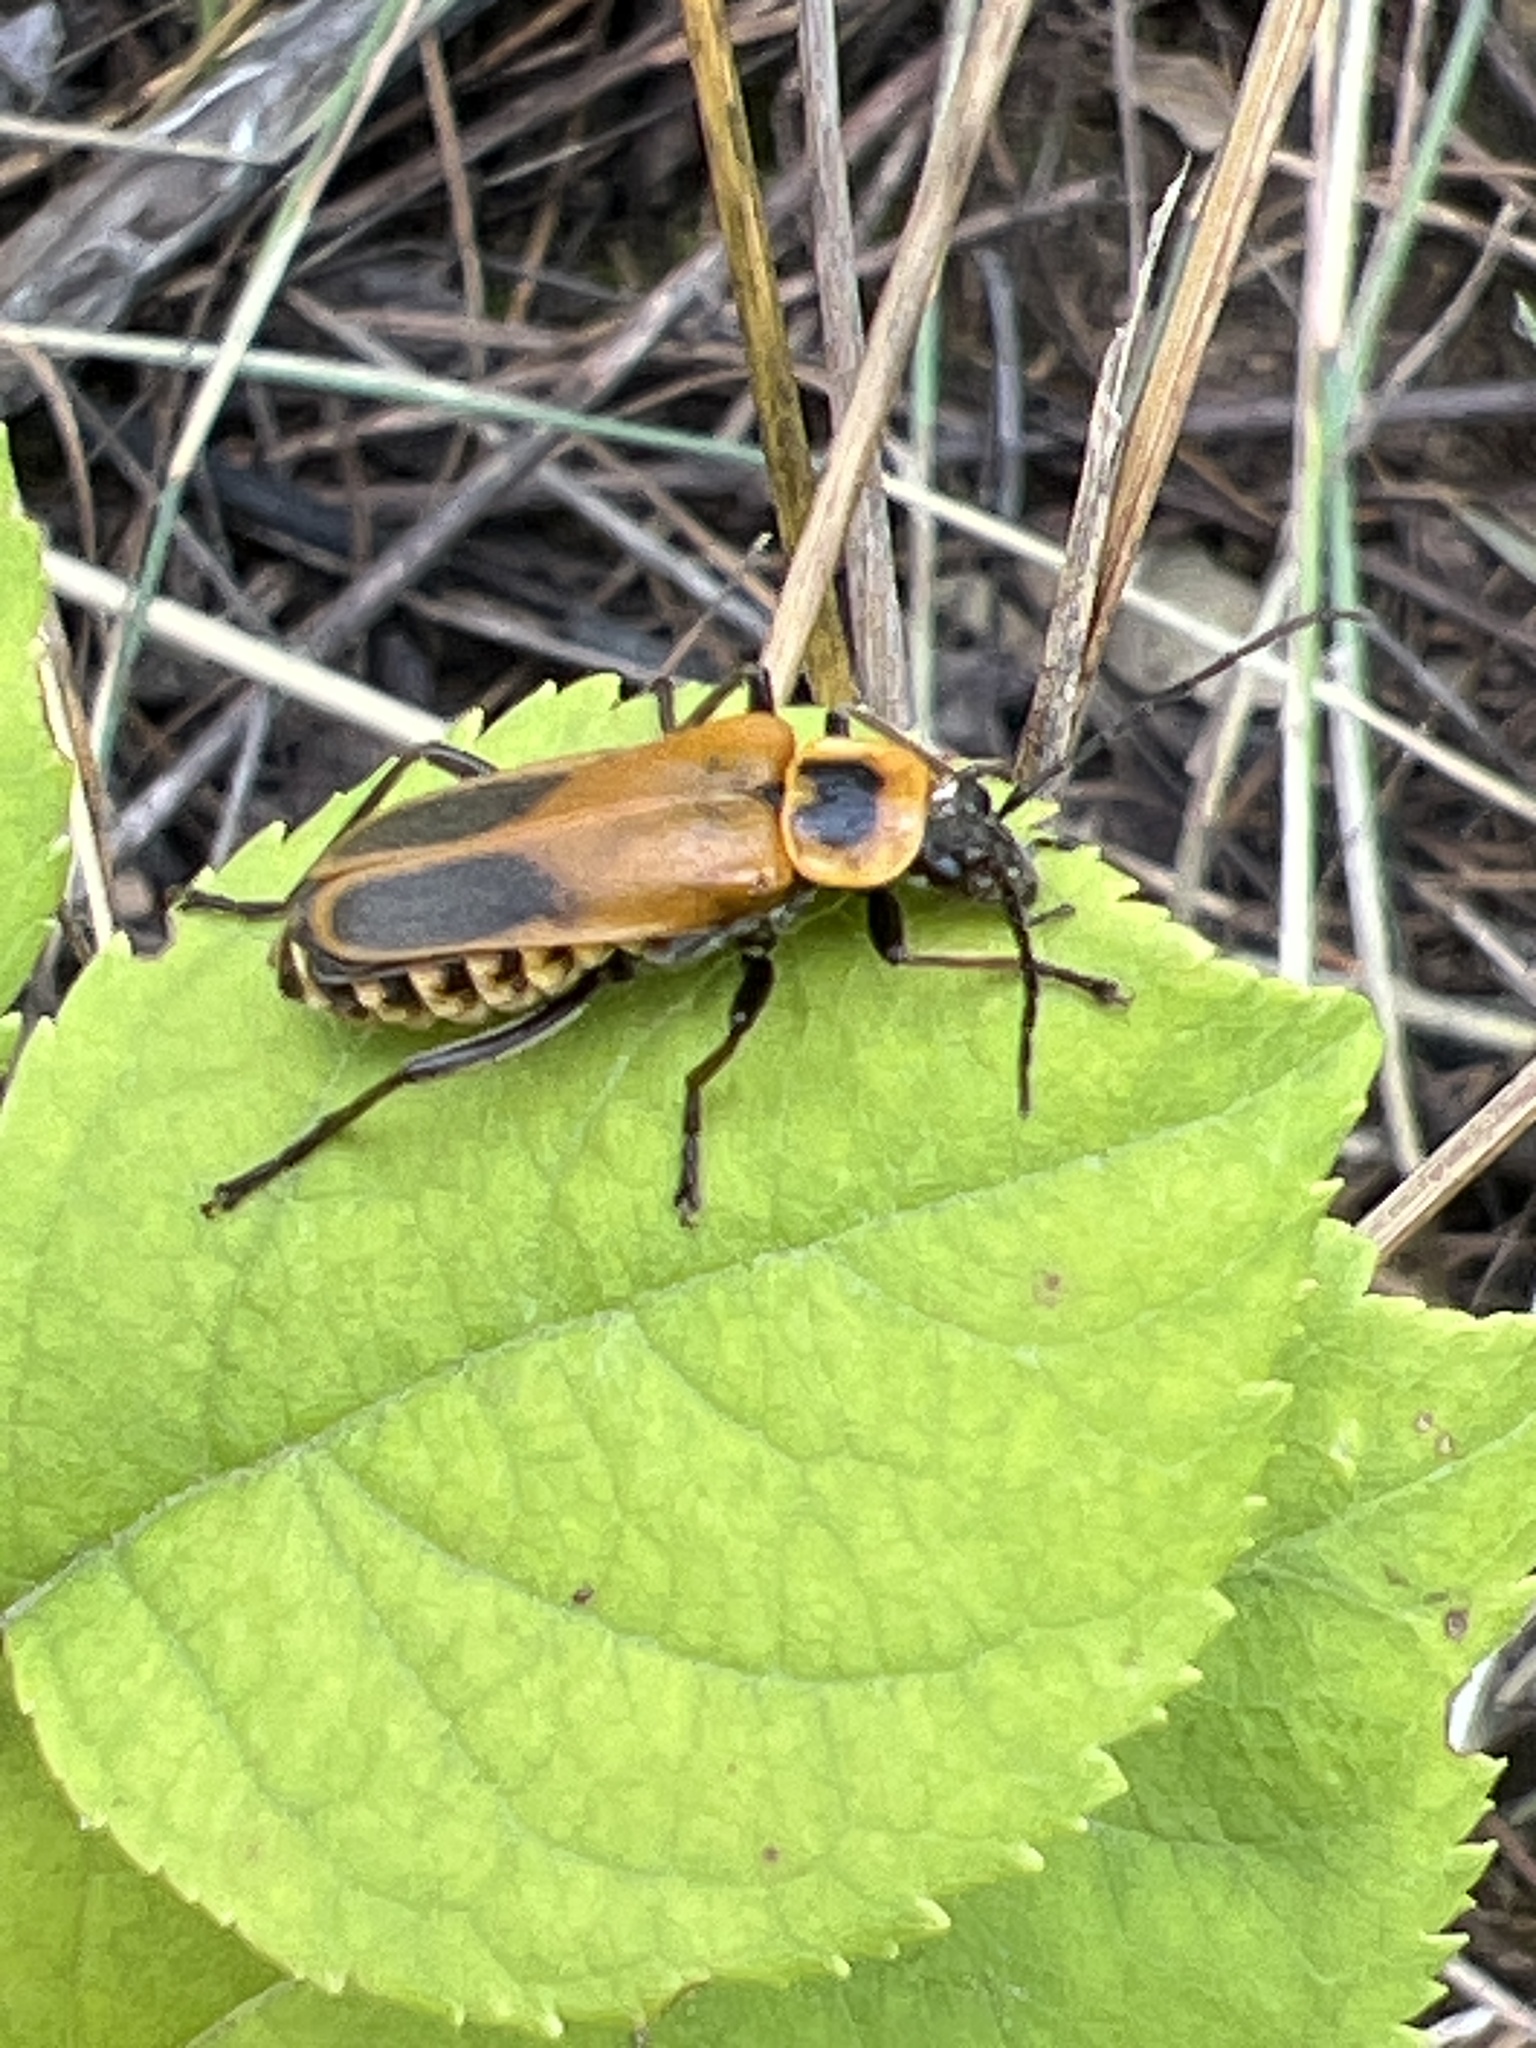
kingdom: Animalia
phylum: Arthropoda
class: Insecta
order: Coleoptera
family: Cantharidae
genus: Chauliognathus
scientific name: Chauliognathus pensylvanicus
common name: Goldenrod soldier beetle
